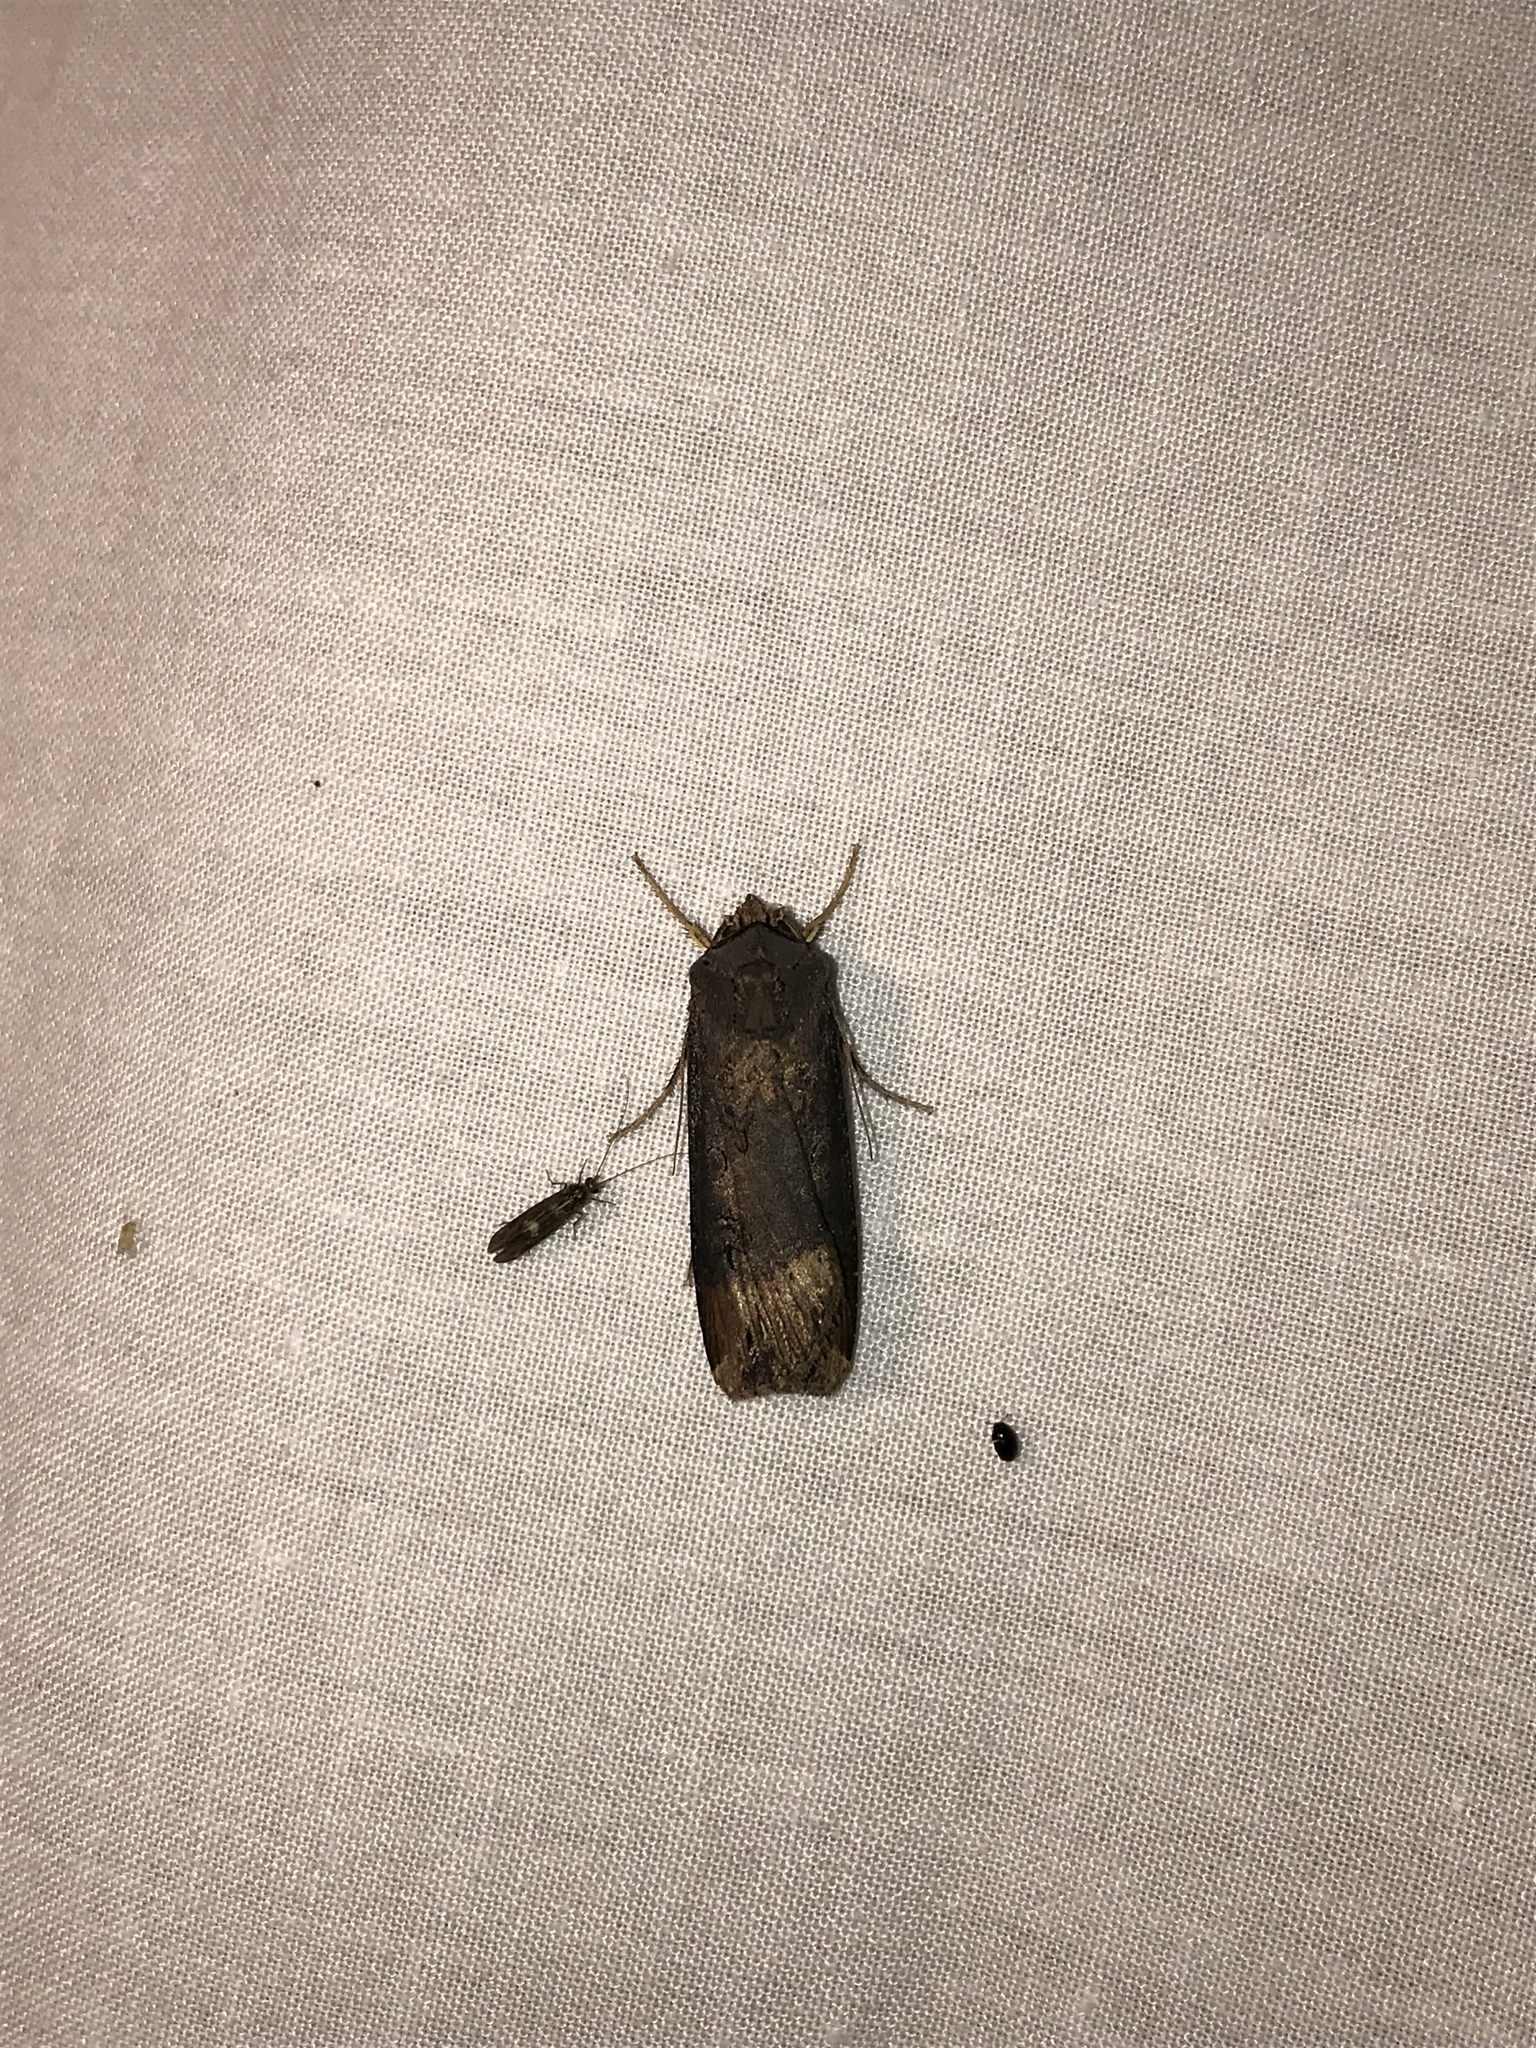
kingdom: Animalia
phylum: Arthropoda
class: Insecta
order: Lepidoptera
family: Noctuidae
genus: Agrotis
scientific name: Agrotis ipsilon
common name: Dark sword-grass
